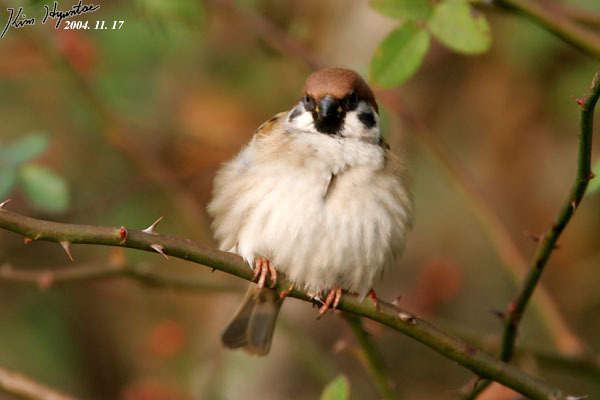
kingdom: Animalia
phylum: Chordata
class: Aves
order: Passeriformes
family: Passeridae
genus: Passer
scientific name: Passer montanus
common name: Eurasian tree sparrow
